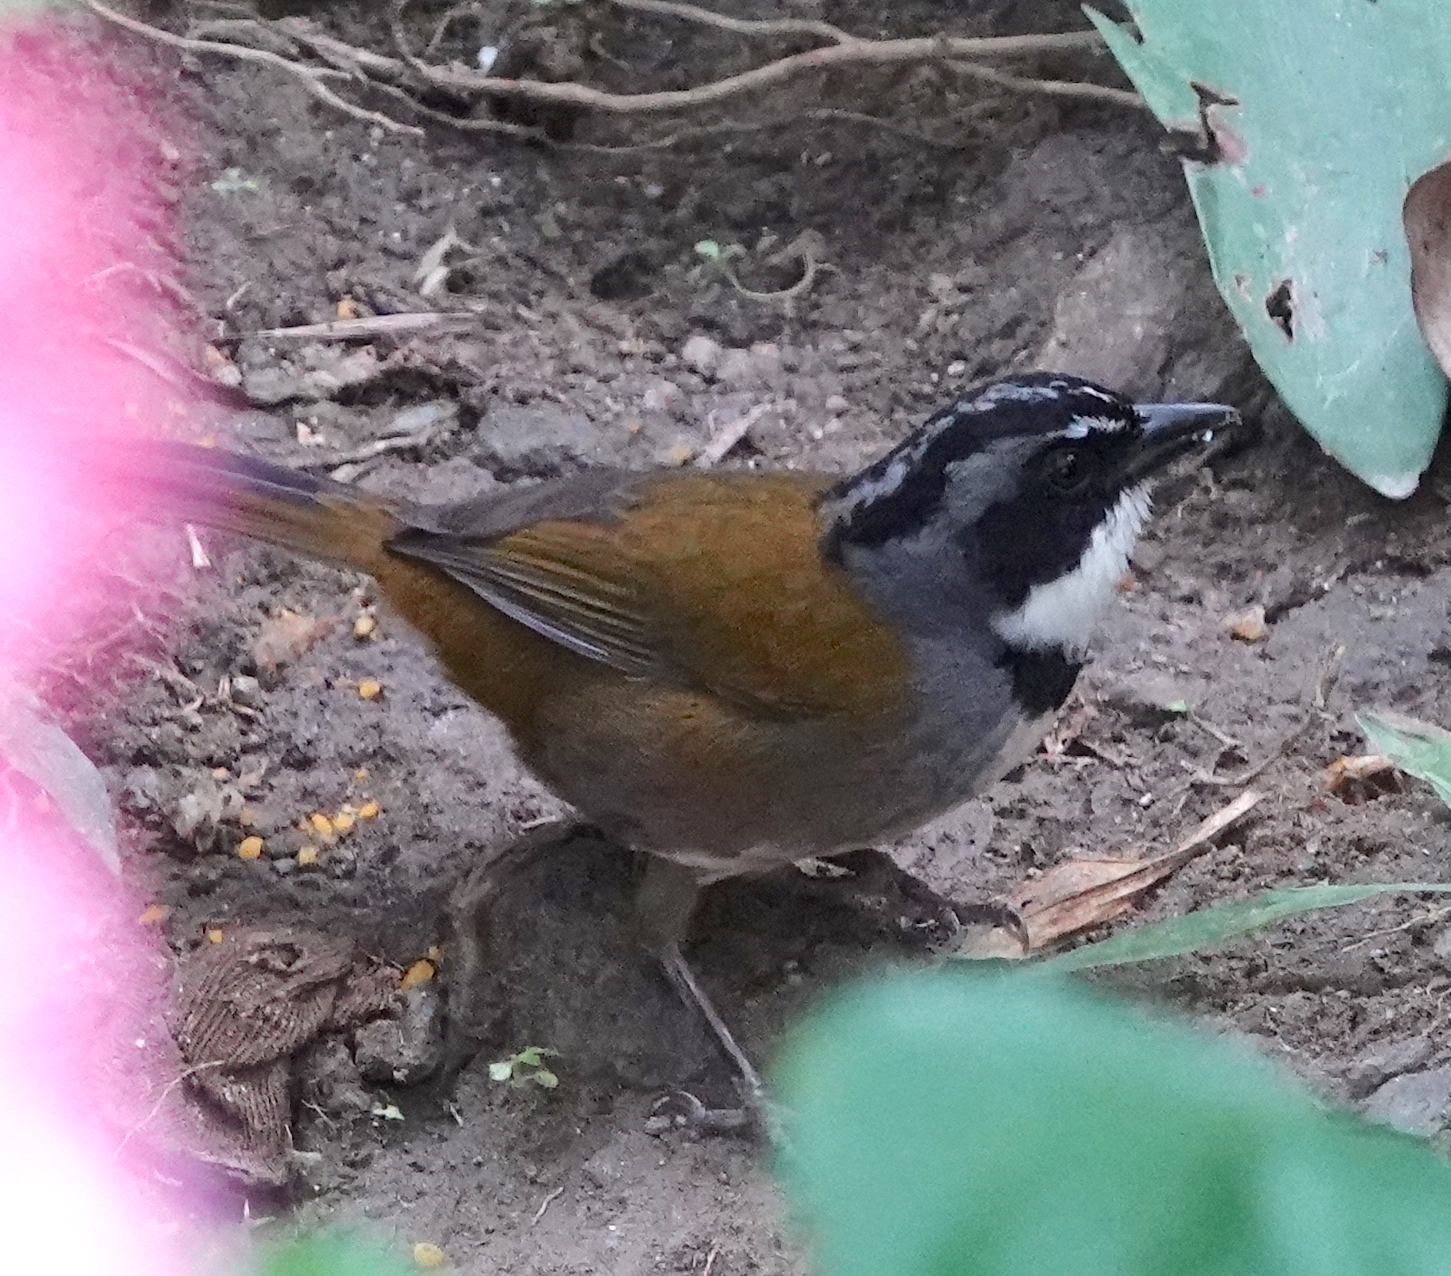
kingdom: Animalia
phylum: Chordata
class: Aves
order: Passeriformes
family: Passerellidae
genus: Arremon
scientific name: Arremon basilicus
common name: Sierra nevada brushfinch
